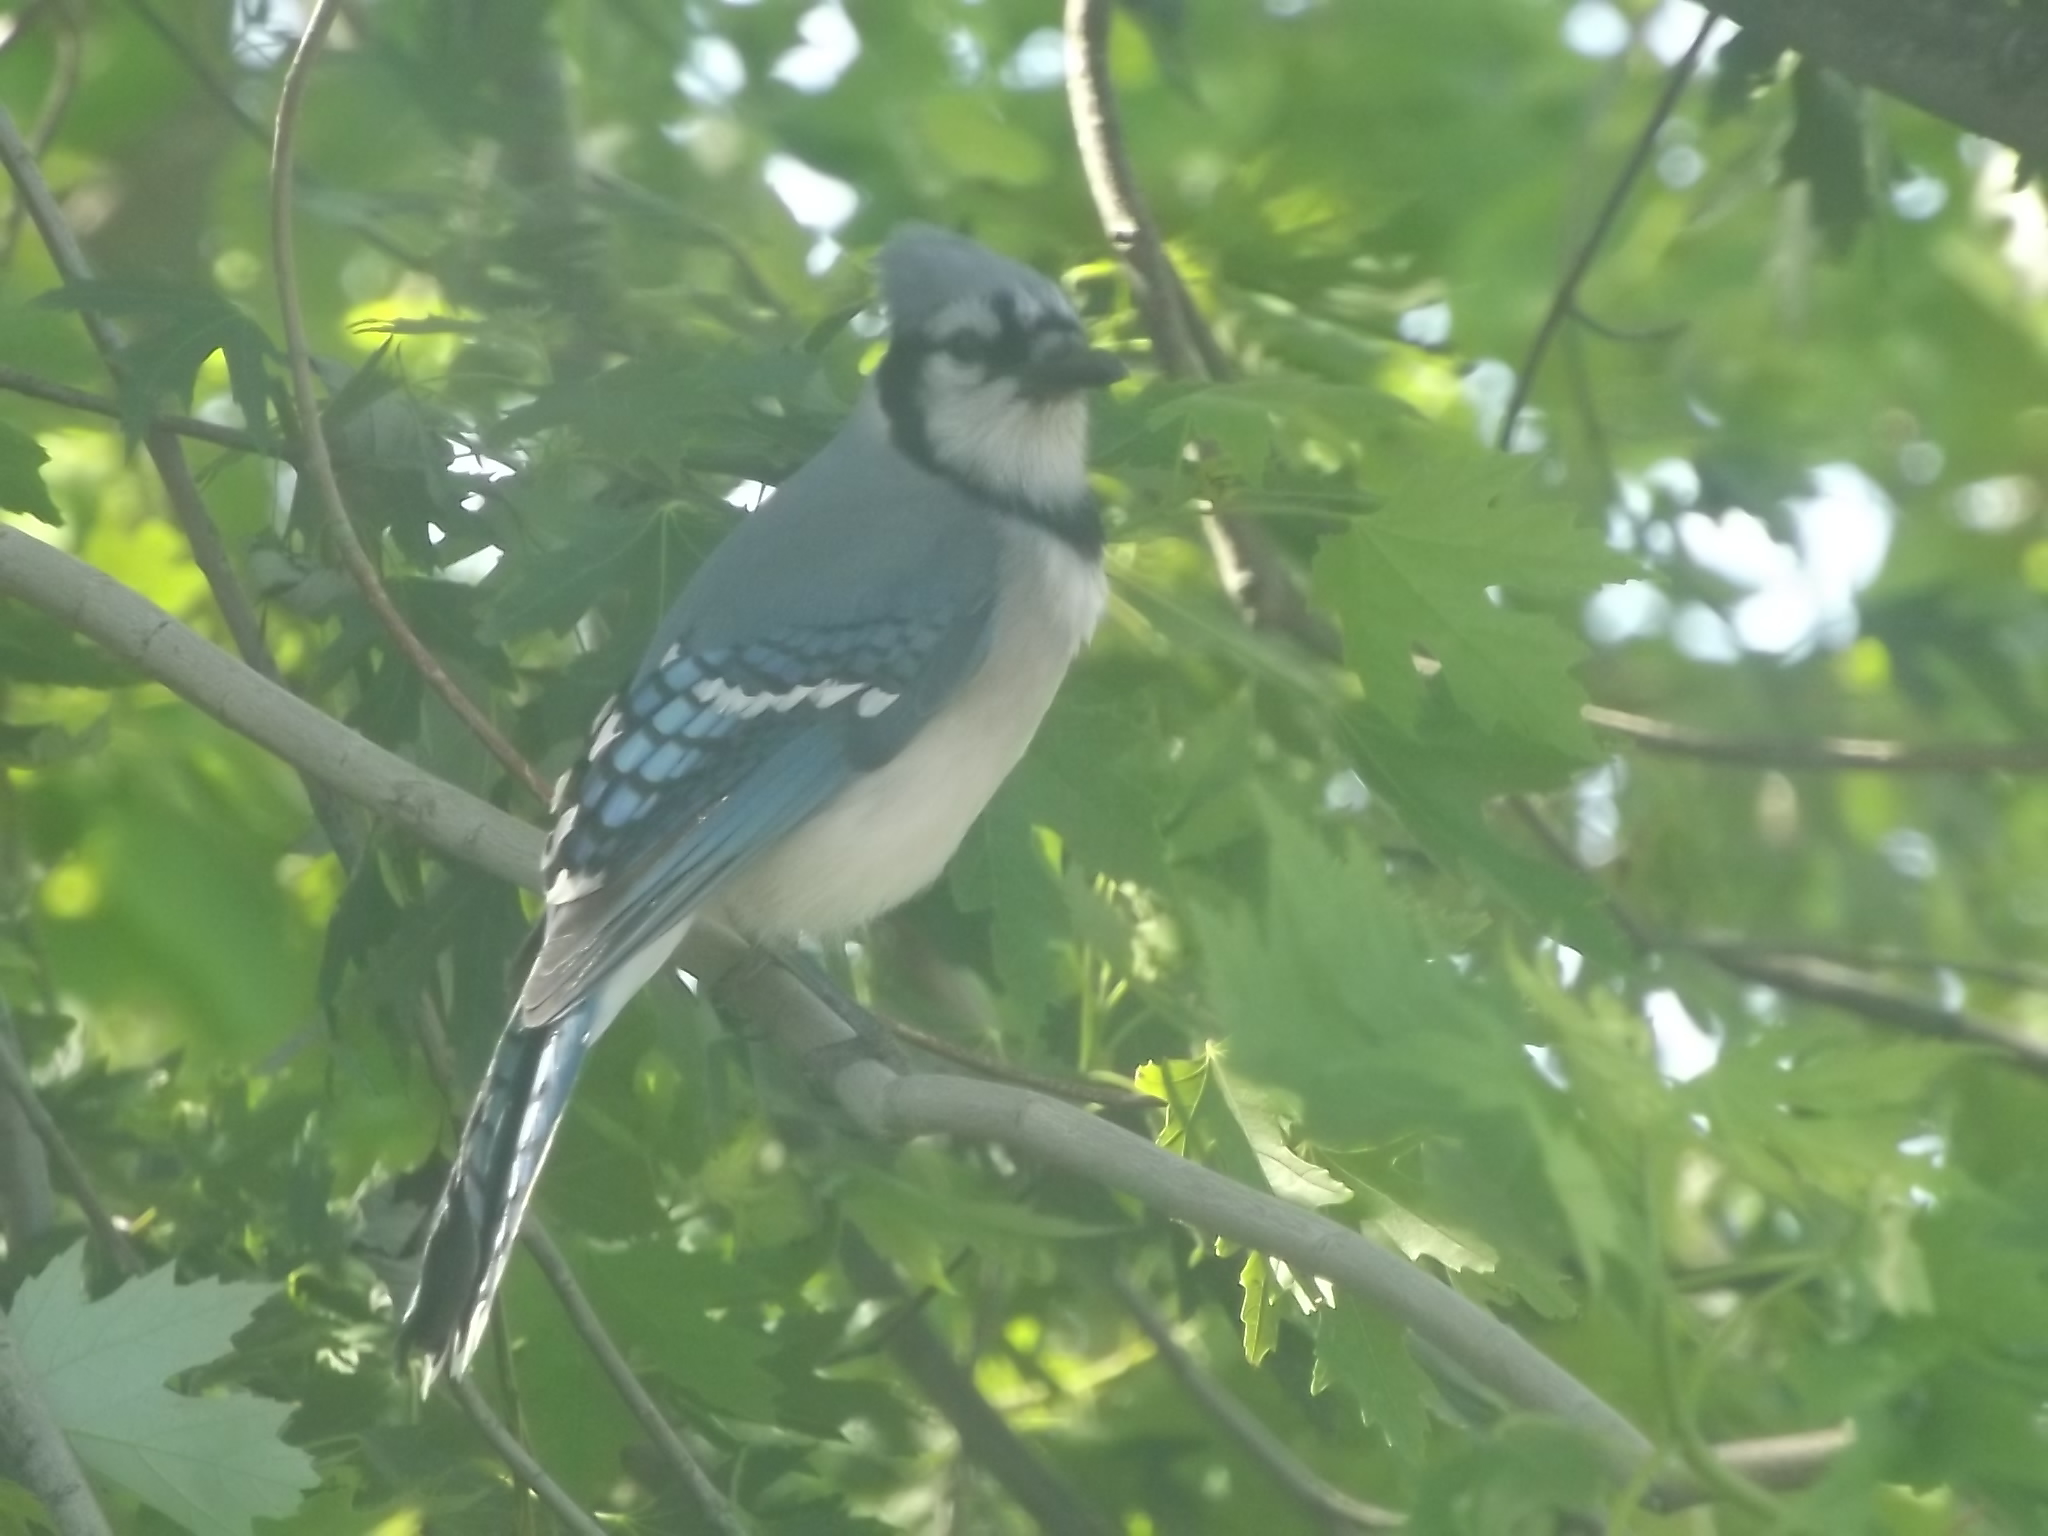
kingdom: Animalia
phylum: Chordata
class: Aves
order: Passeriformes
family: Corvidae
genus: Cyanocitta
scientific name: Cyanocitta cristata
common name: Blue jay
